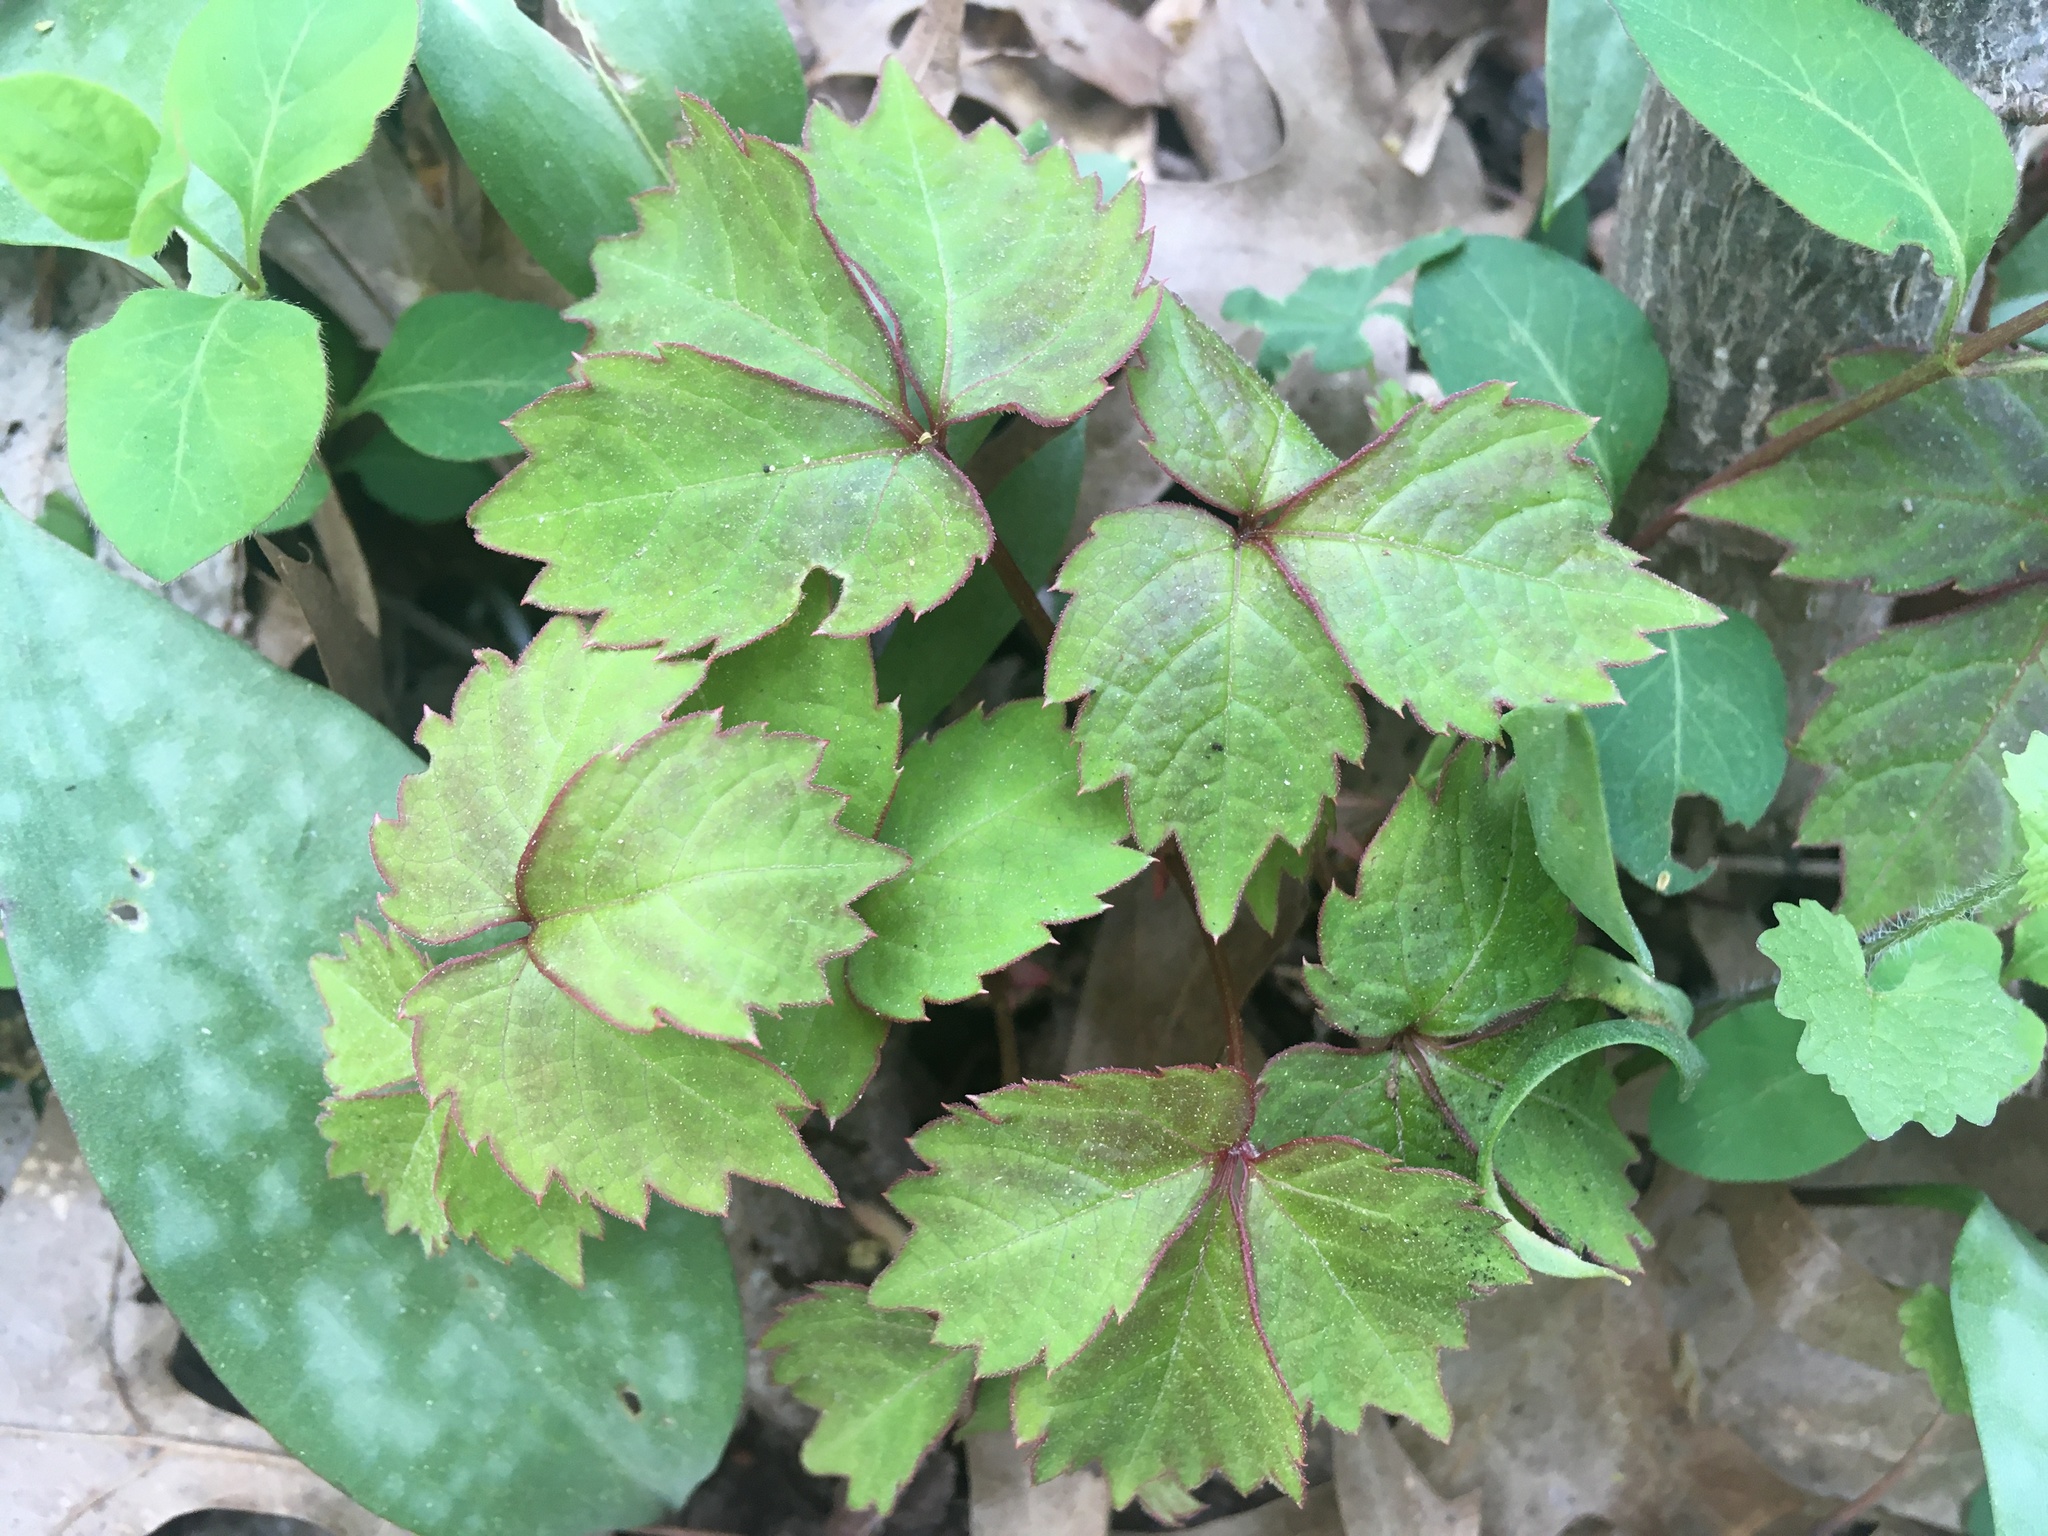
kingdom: Plantae
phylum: Tracheophyta
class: Magnoliopsida
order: Vitales
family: Vitaceae
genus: Parthenocissus
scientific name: Parthenocissus tricuspidata
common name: Boston ivy
